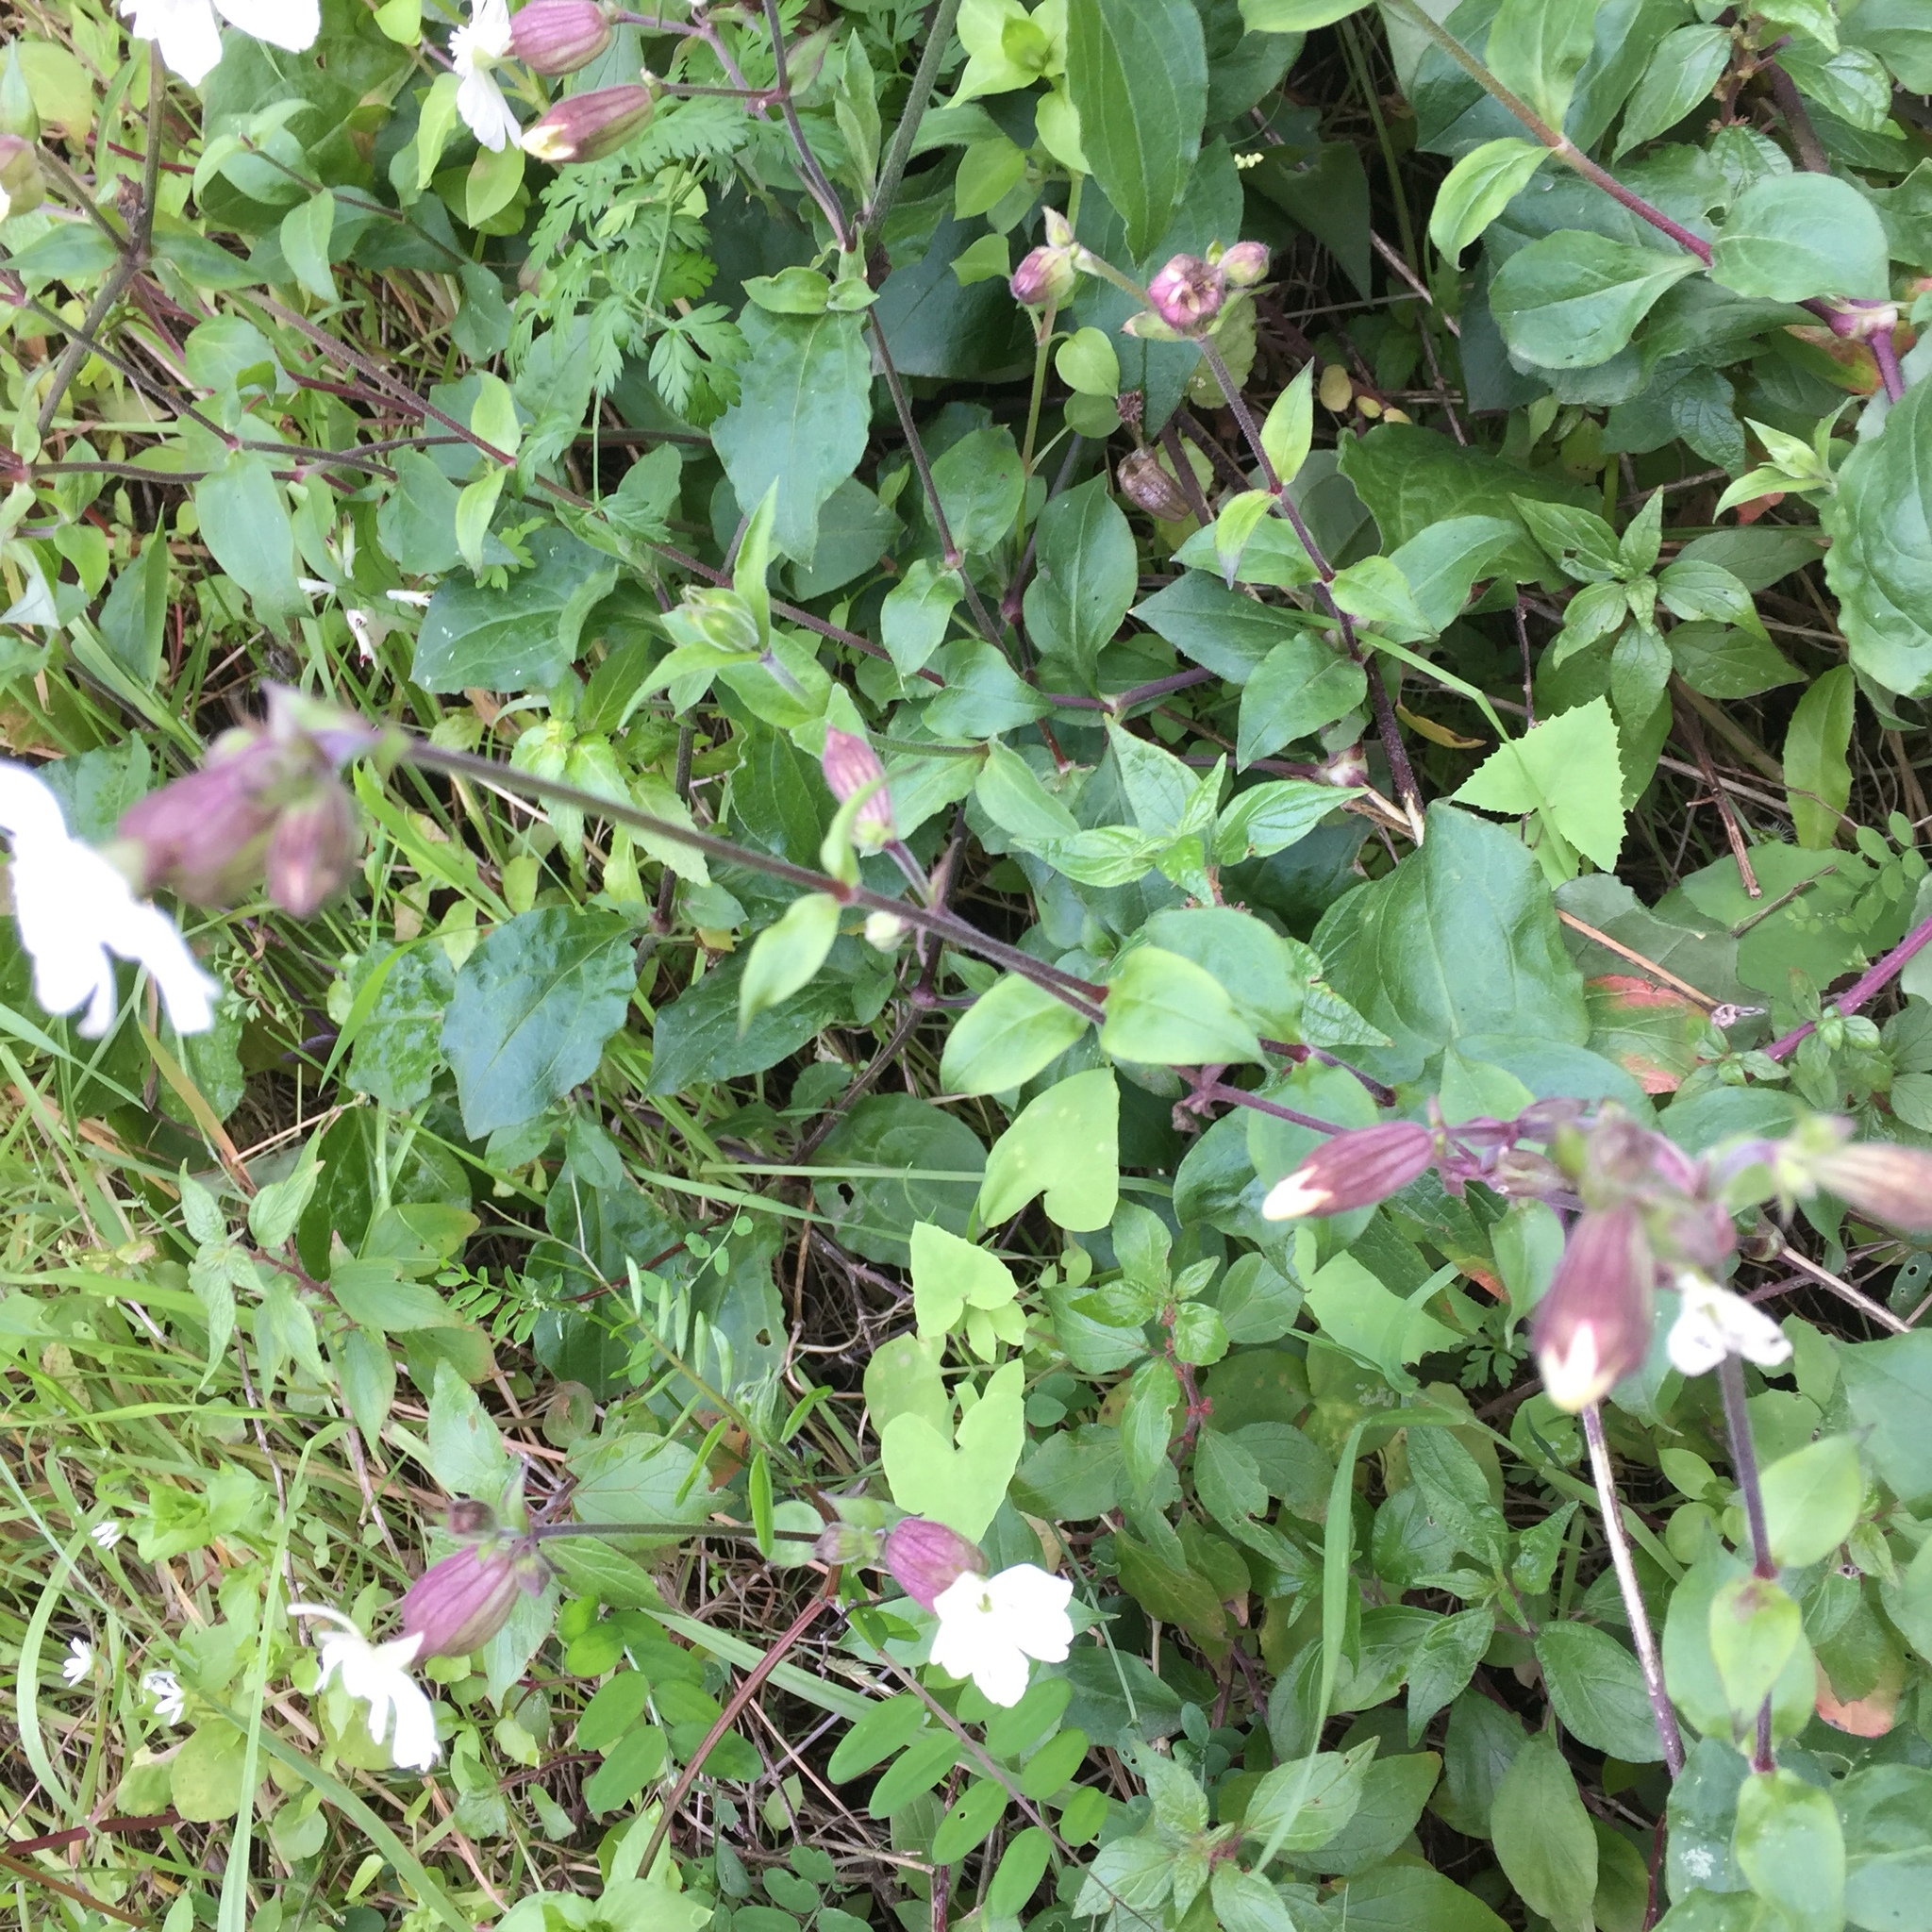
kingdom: Plantae
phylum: Tracheophyta
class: Magnoliopsida
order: Caryophyllales
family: Caryophyllaceae
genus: Silene
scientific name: Silene latifolia
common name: White campion
